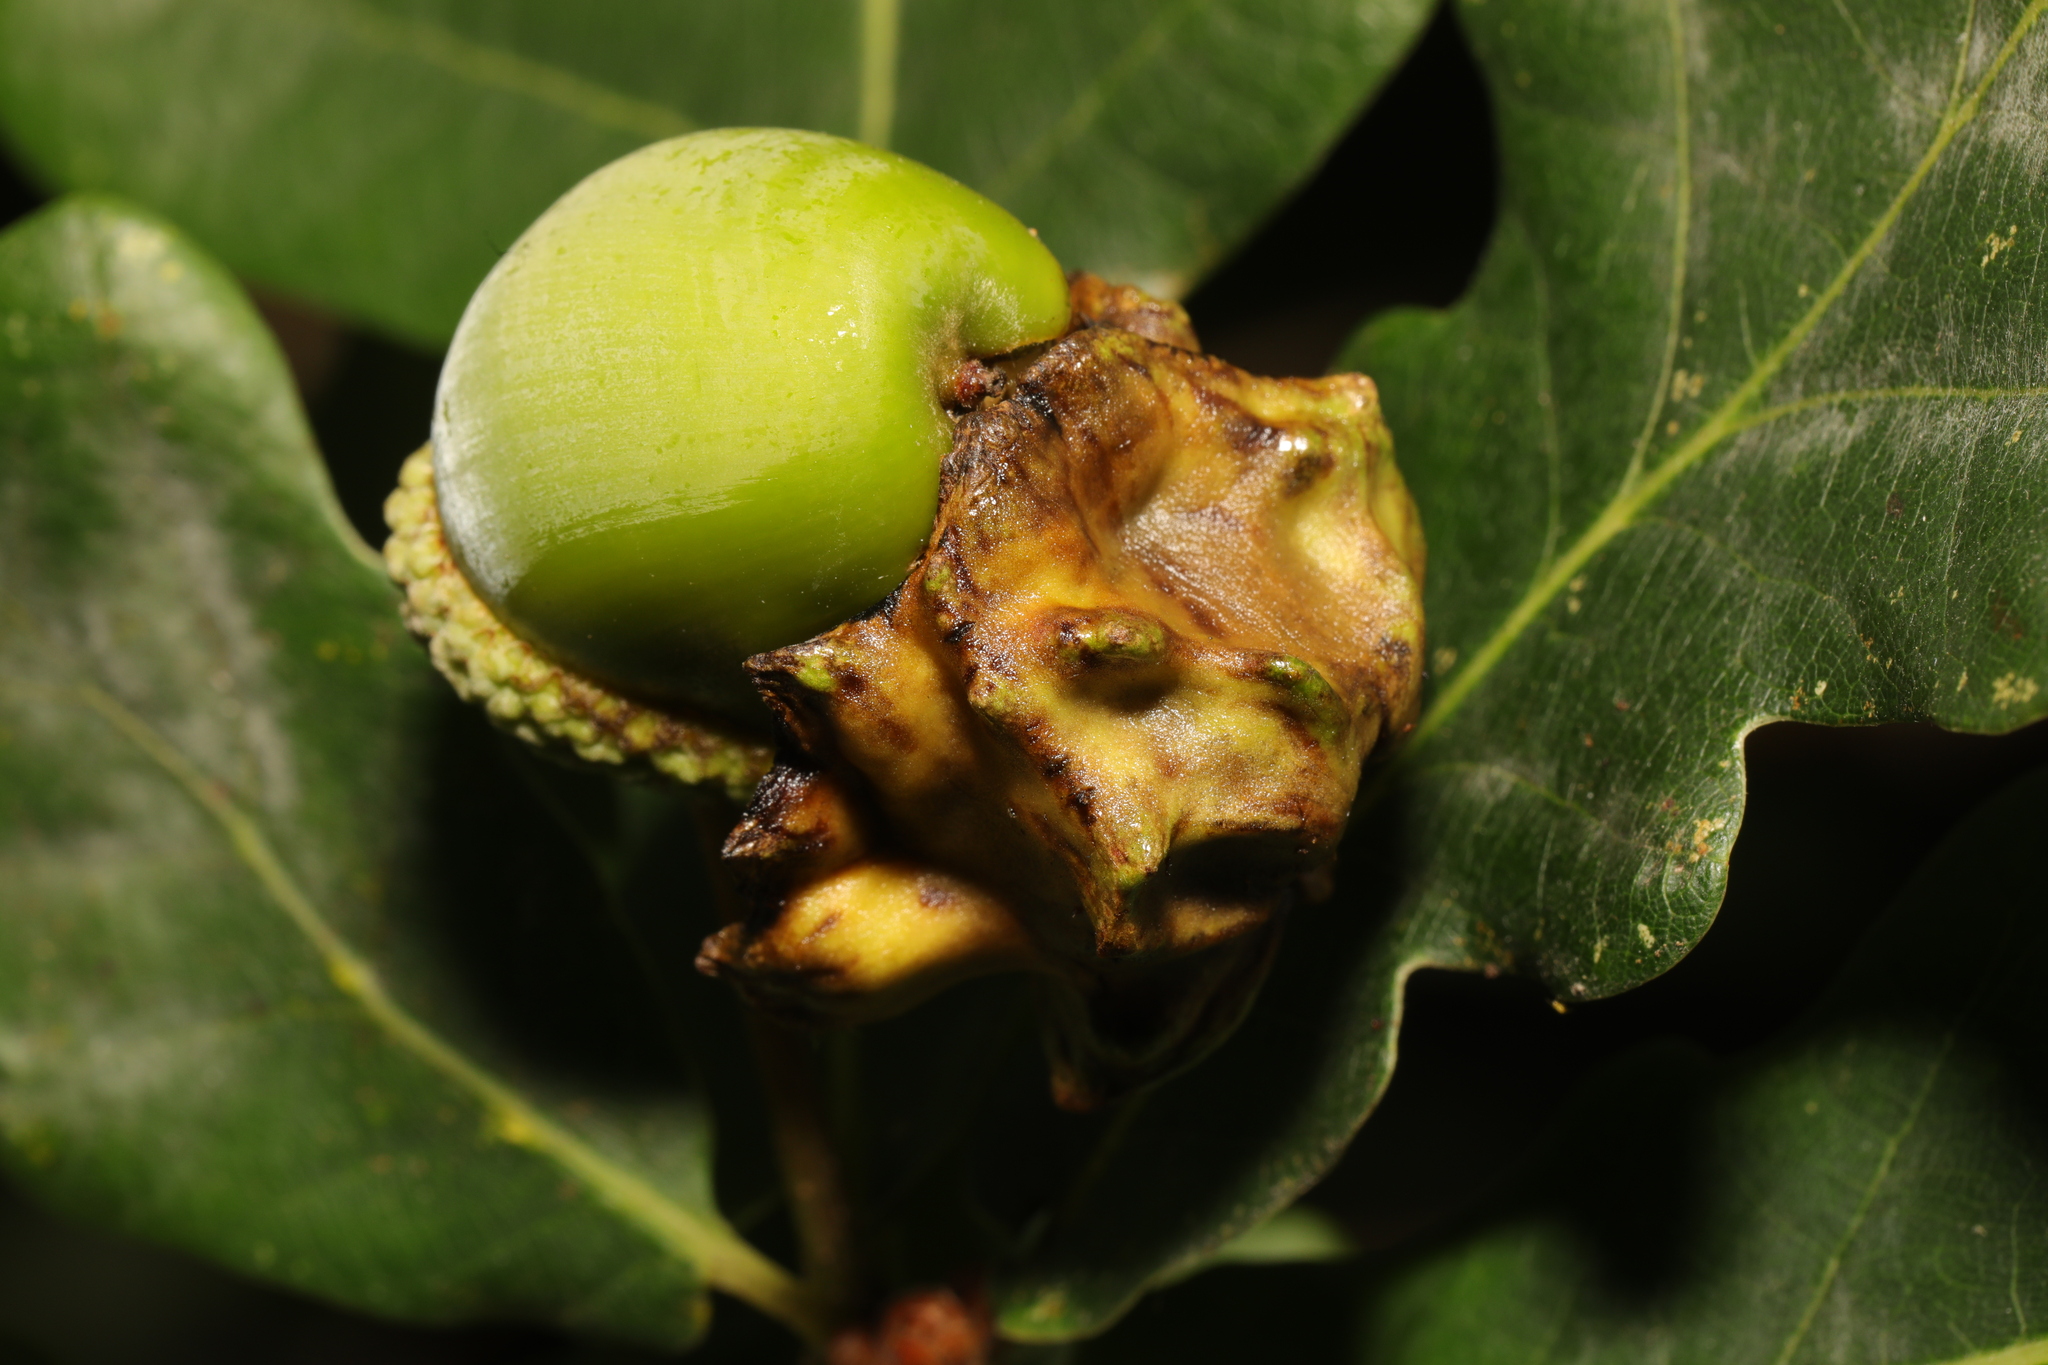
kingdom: Animalia
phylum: Arthropoda
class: Insecta
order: Hymenoptera
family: Cynipidae
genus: Andricus
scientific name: Andricus quercuscalicis
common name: Knopper gall
